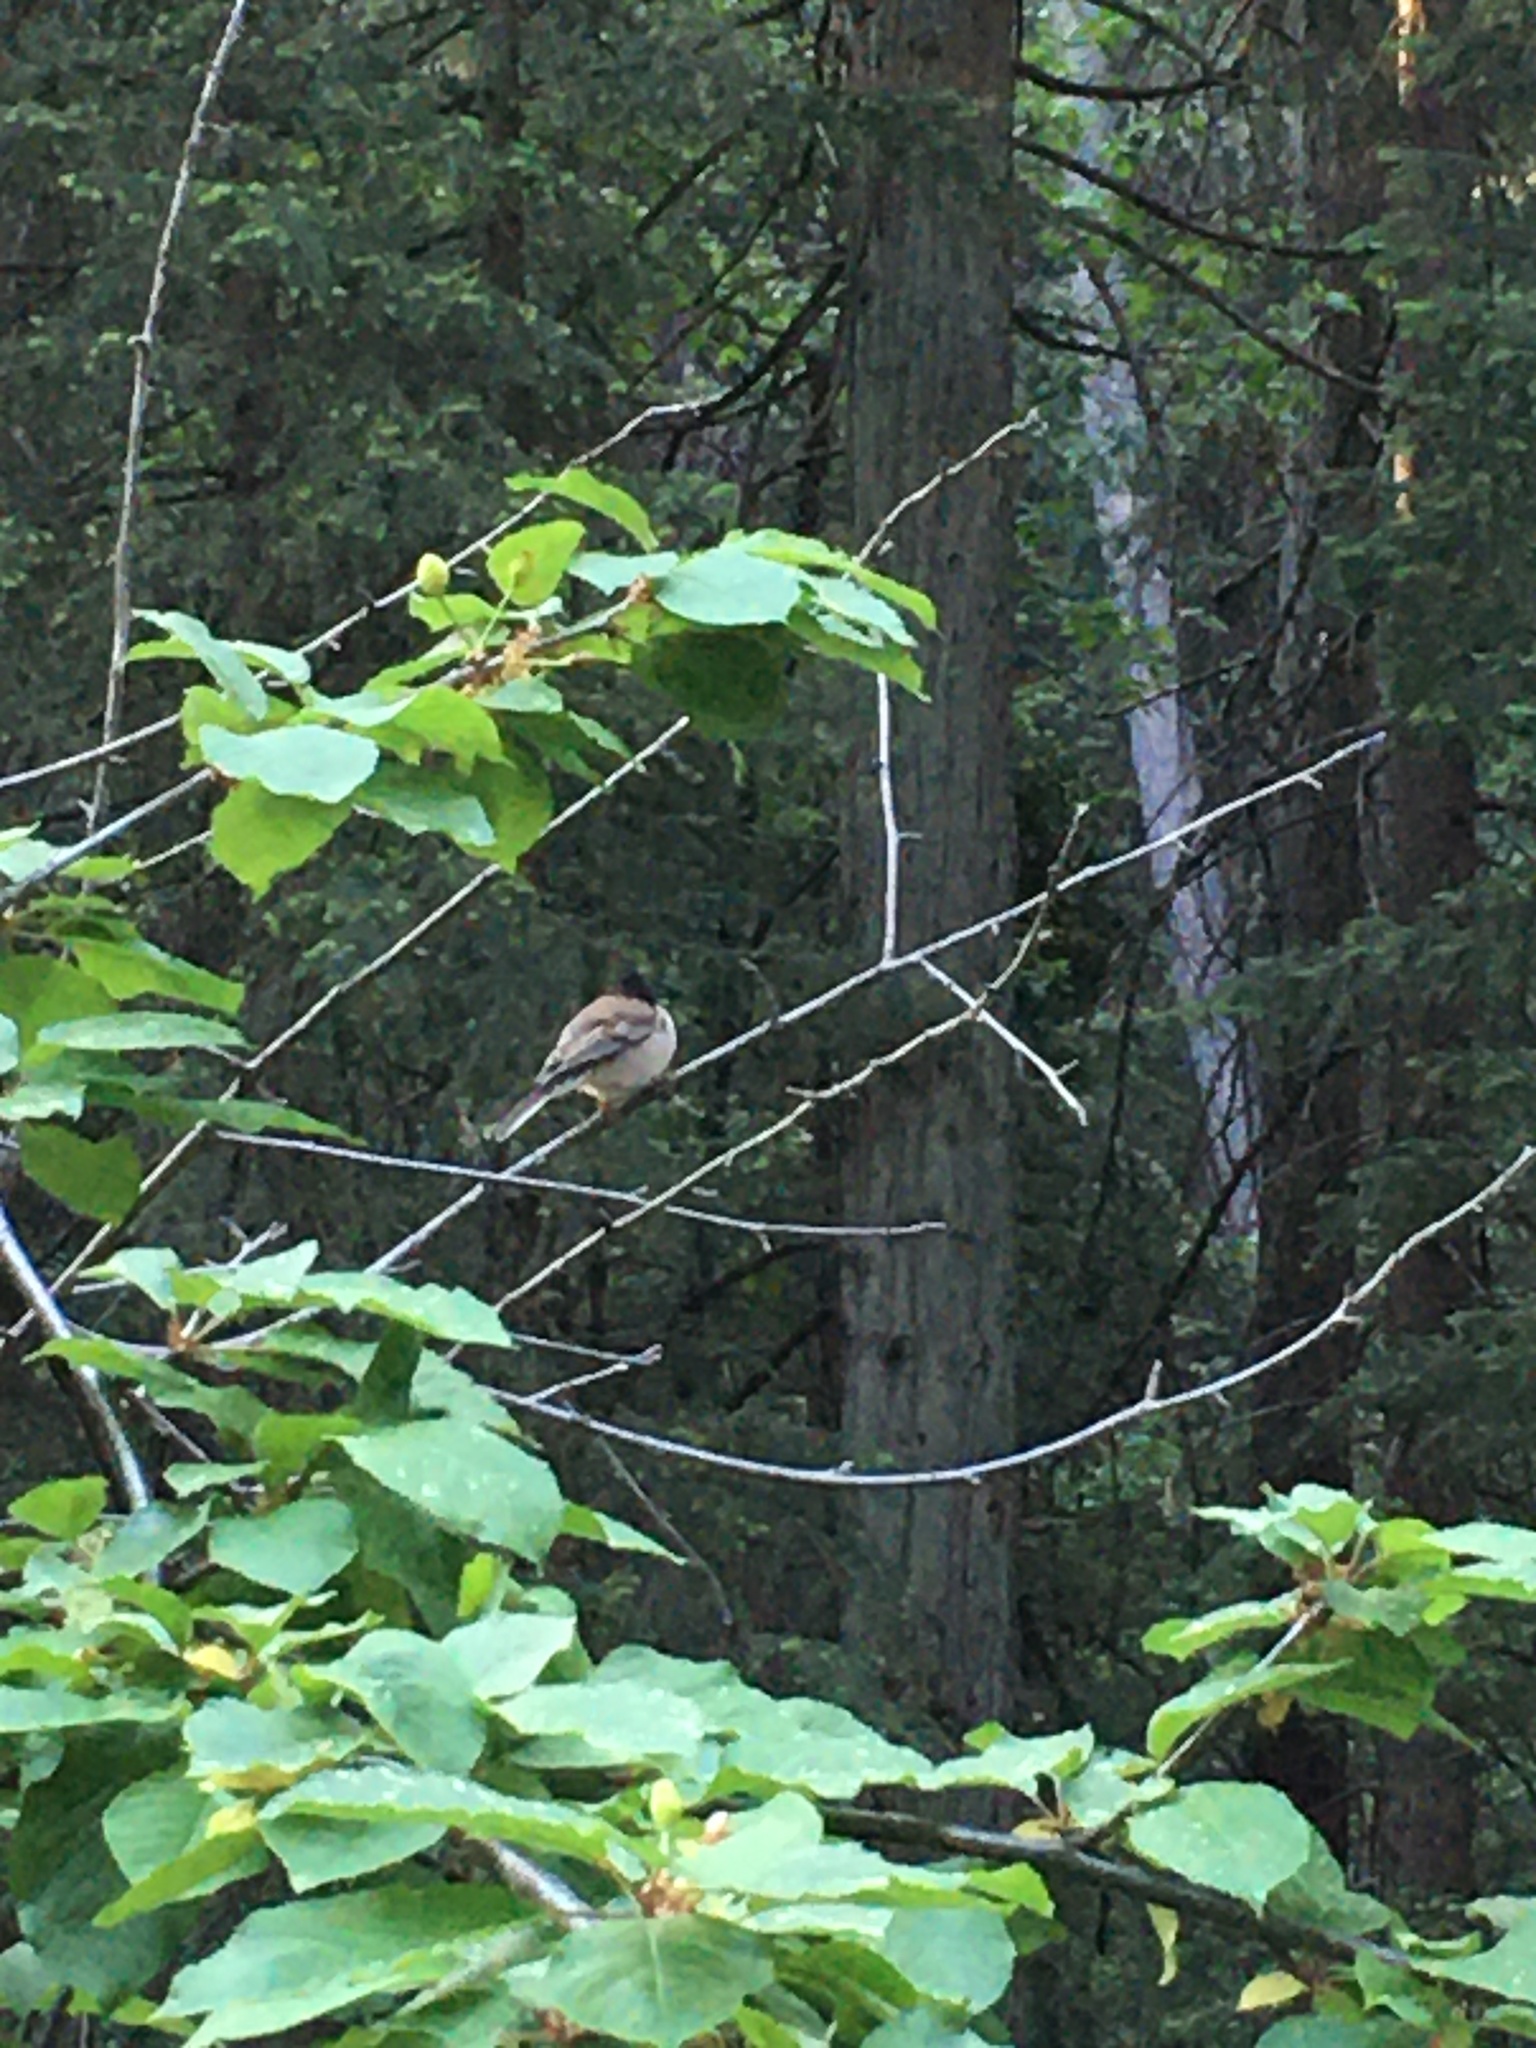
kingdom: Animalia
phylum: Chordata
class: Aves
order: Passeriformes
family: Passerellidae
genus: Junco
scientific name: Junco hyemalis
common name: Dark-eyed junco
